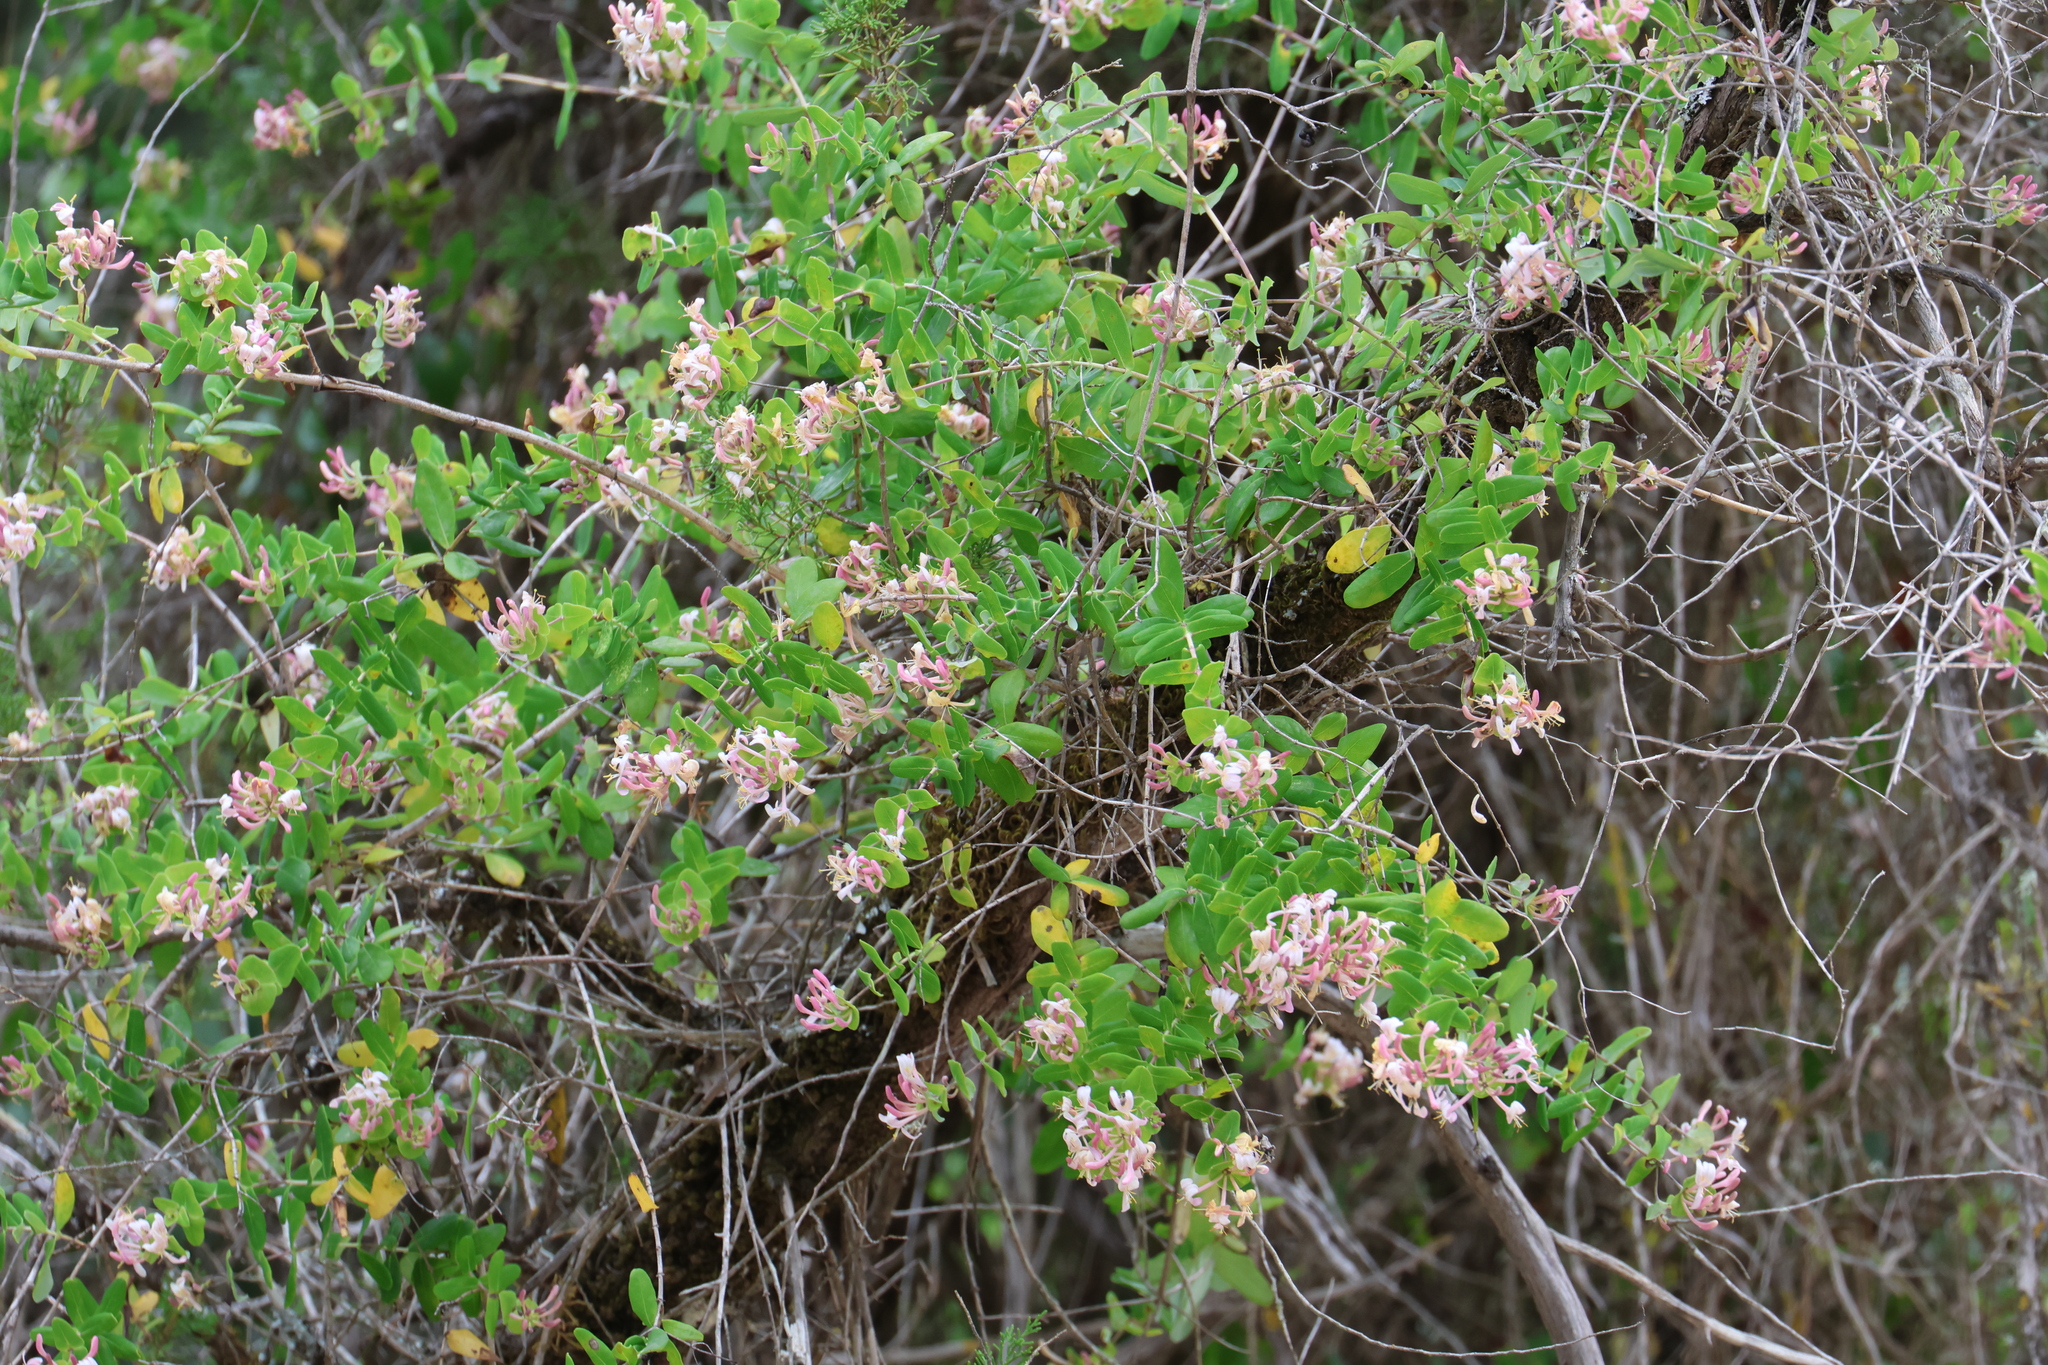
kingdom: Plantae
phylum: Tracheophyta
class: Magnoliopsida
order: Dipsacales
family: Caprifoliaceae
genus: Lonicera
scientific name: Lonicera implexa
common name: Minorca honeysuckle
